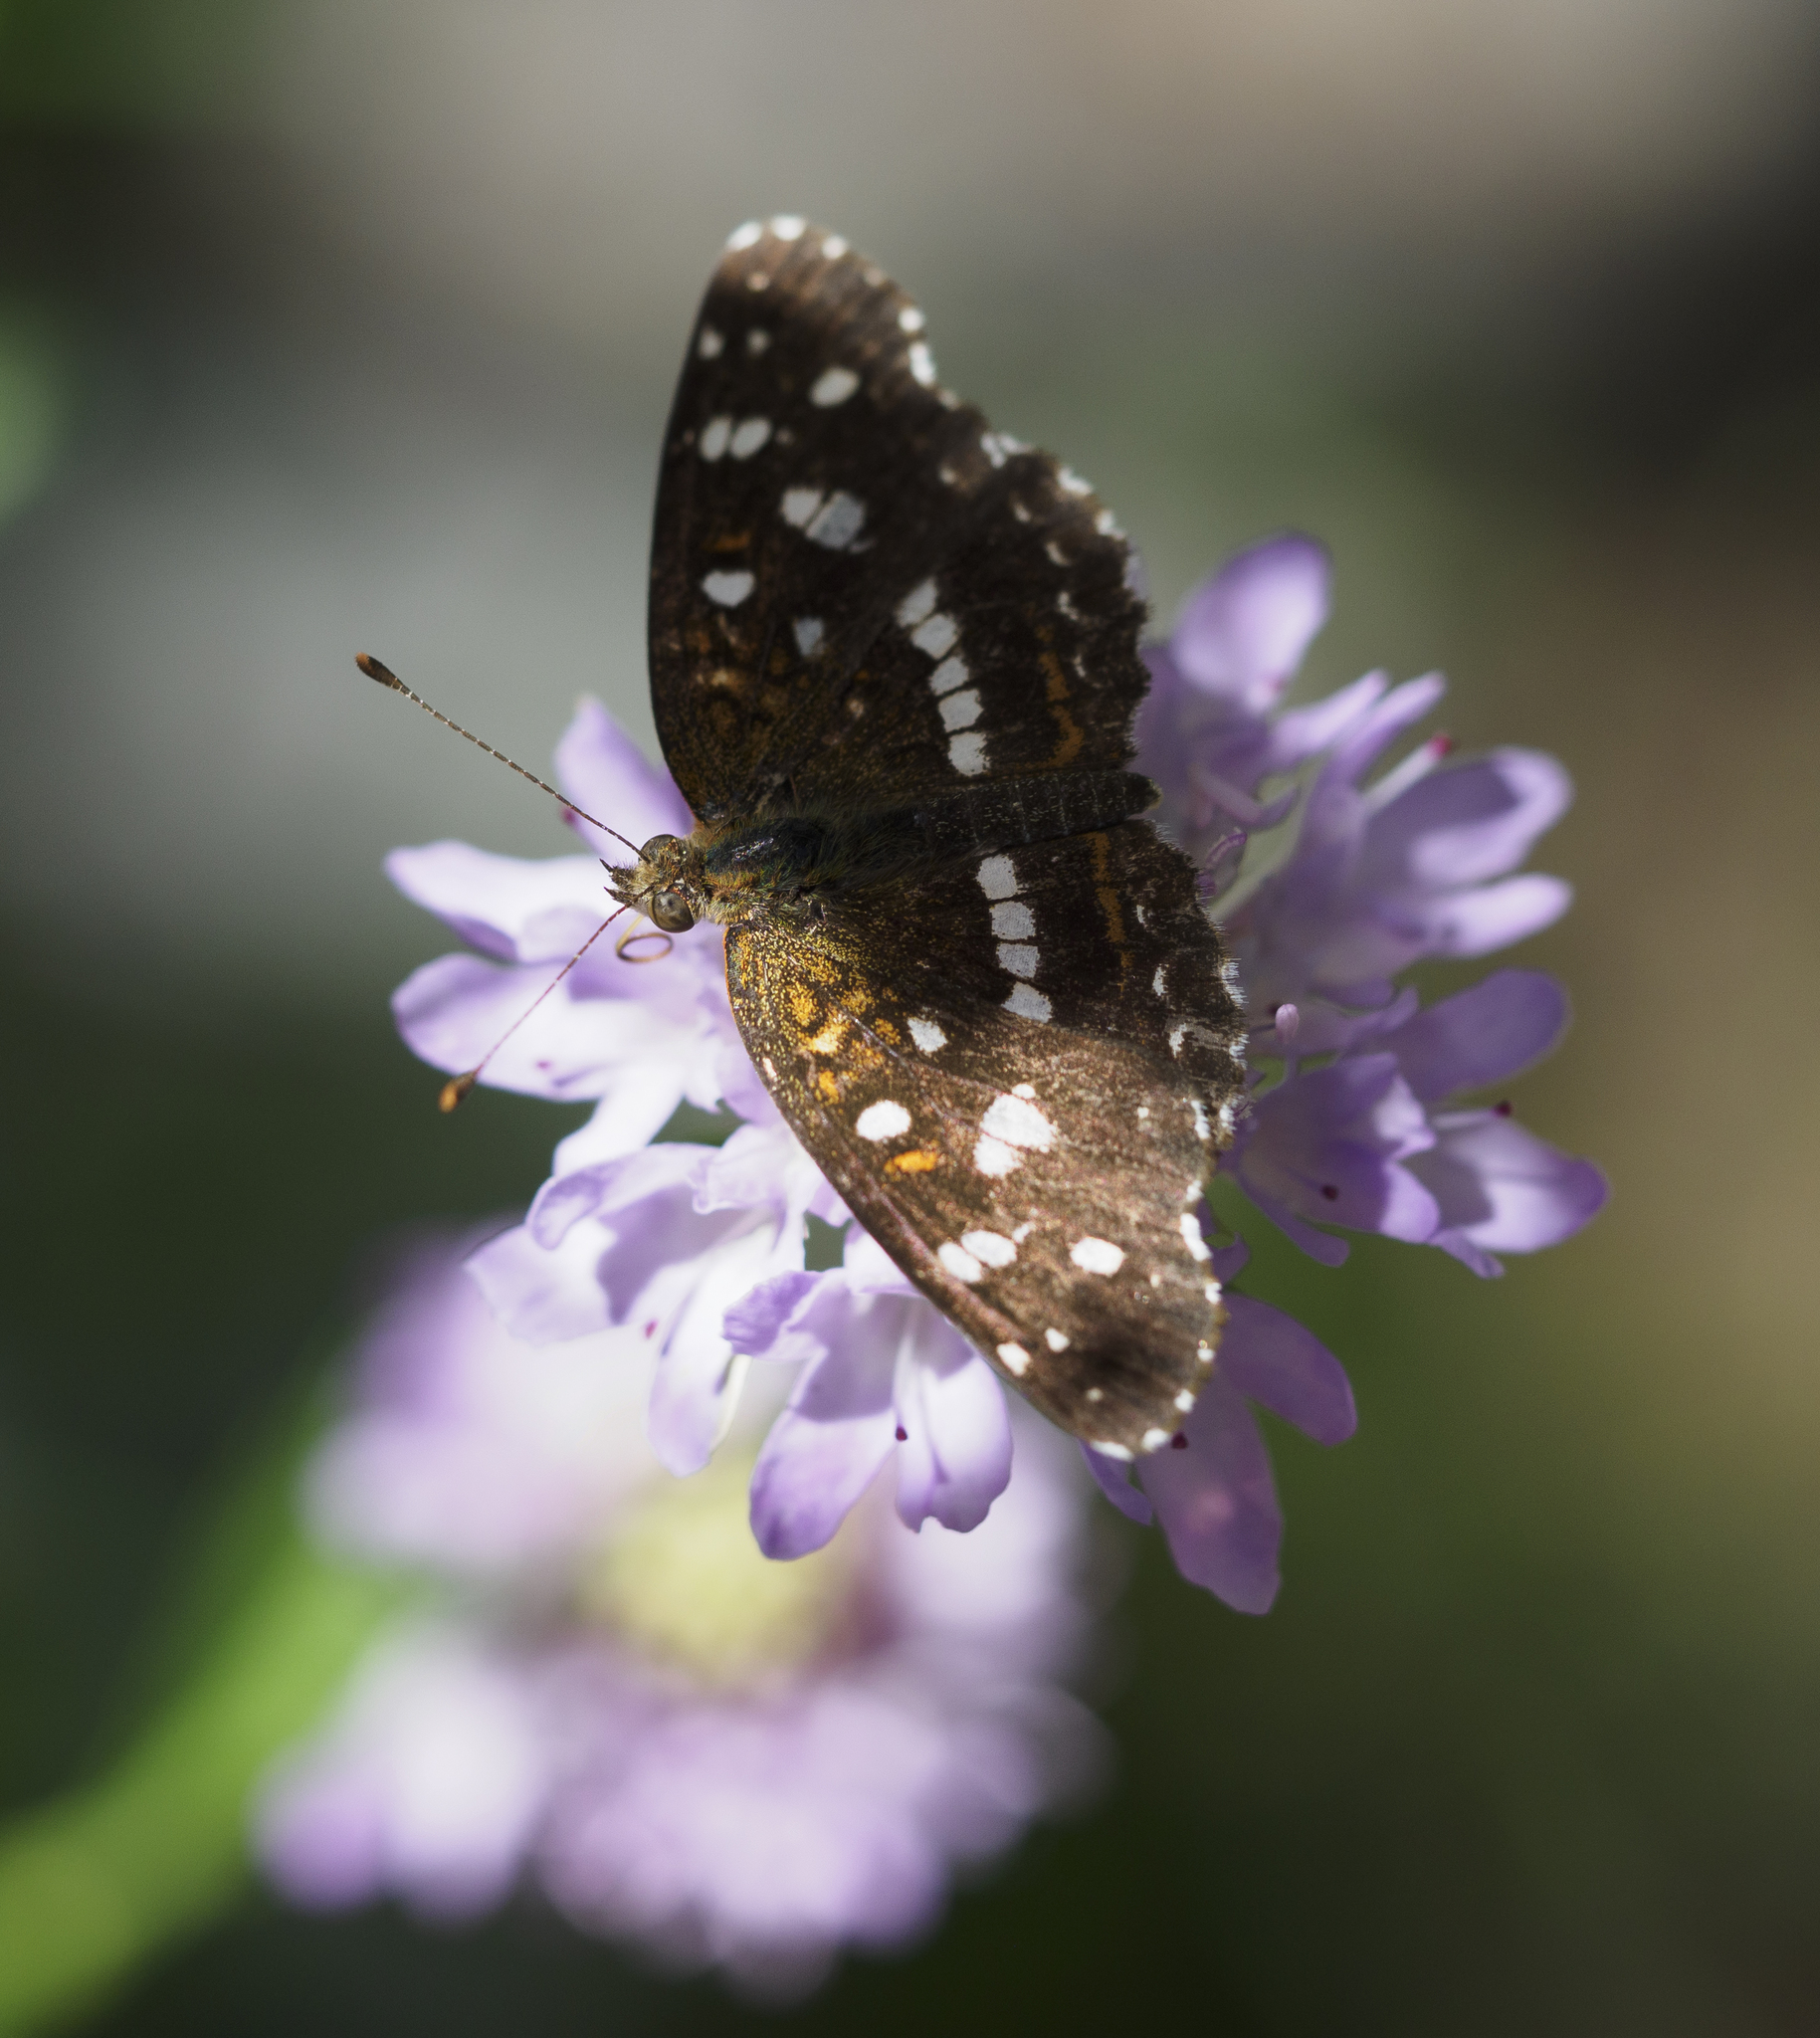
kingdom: Animalia
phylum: Arthropoda
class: Insecta
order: Lepidoptera
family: Nymphalidae
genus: Ortilia
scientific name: Ortilia ithra
